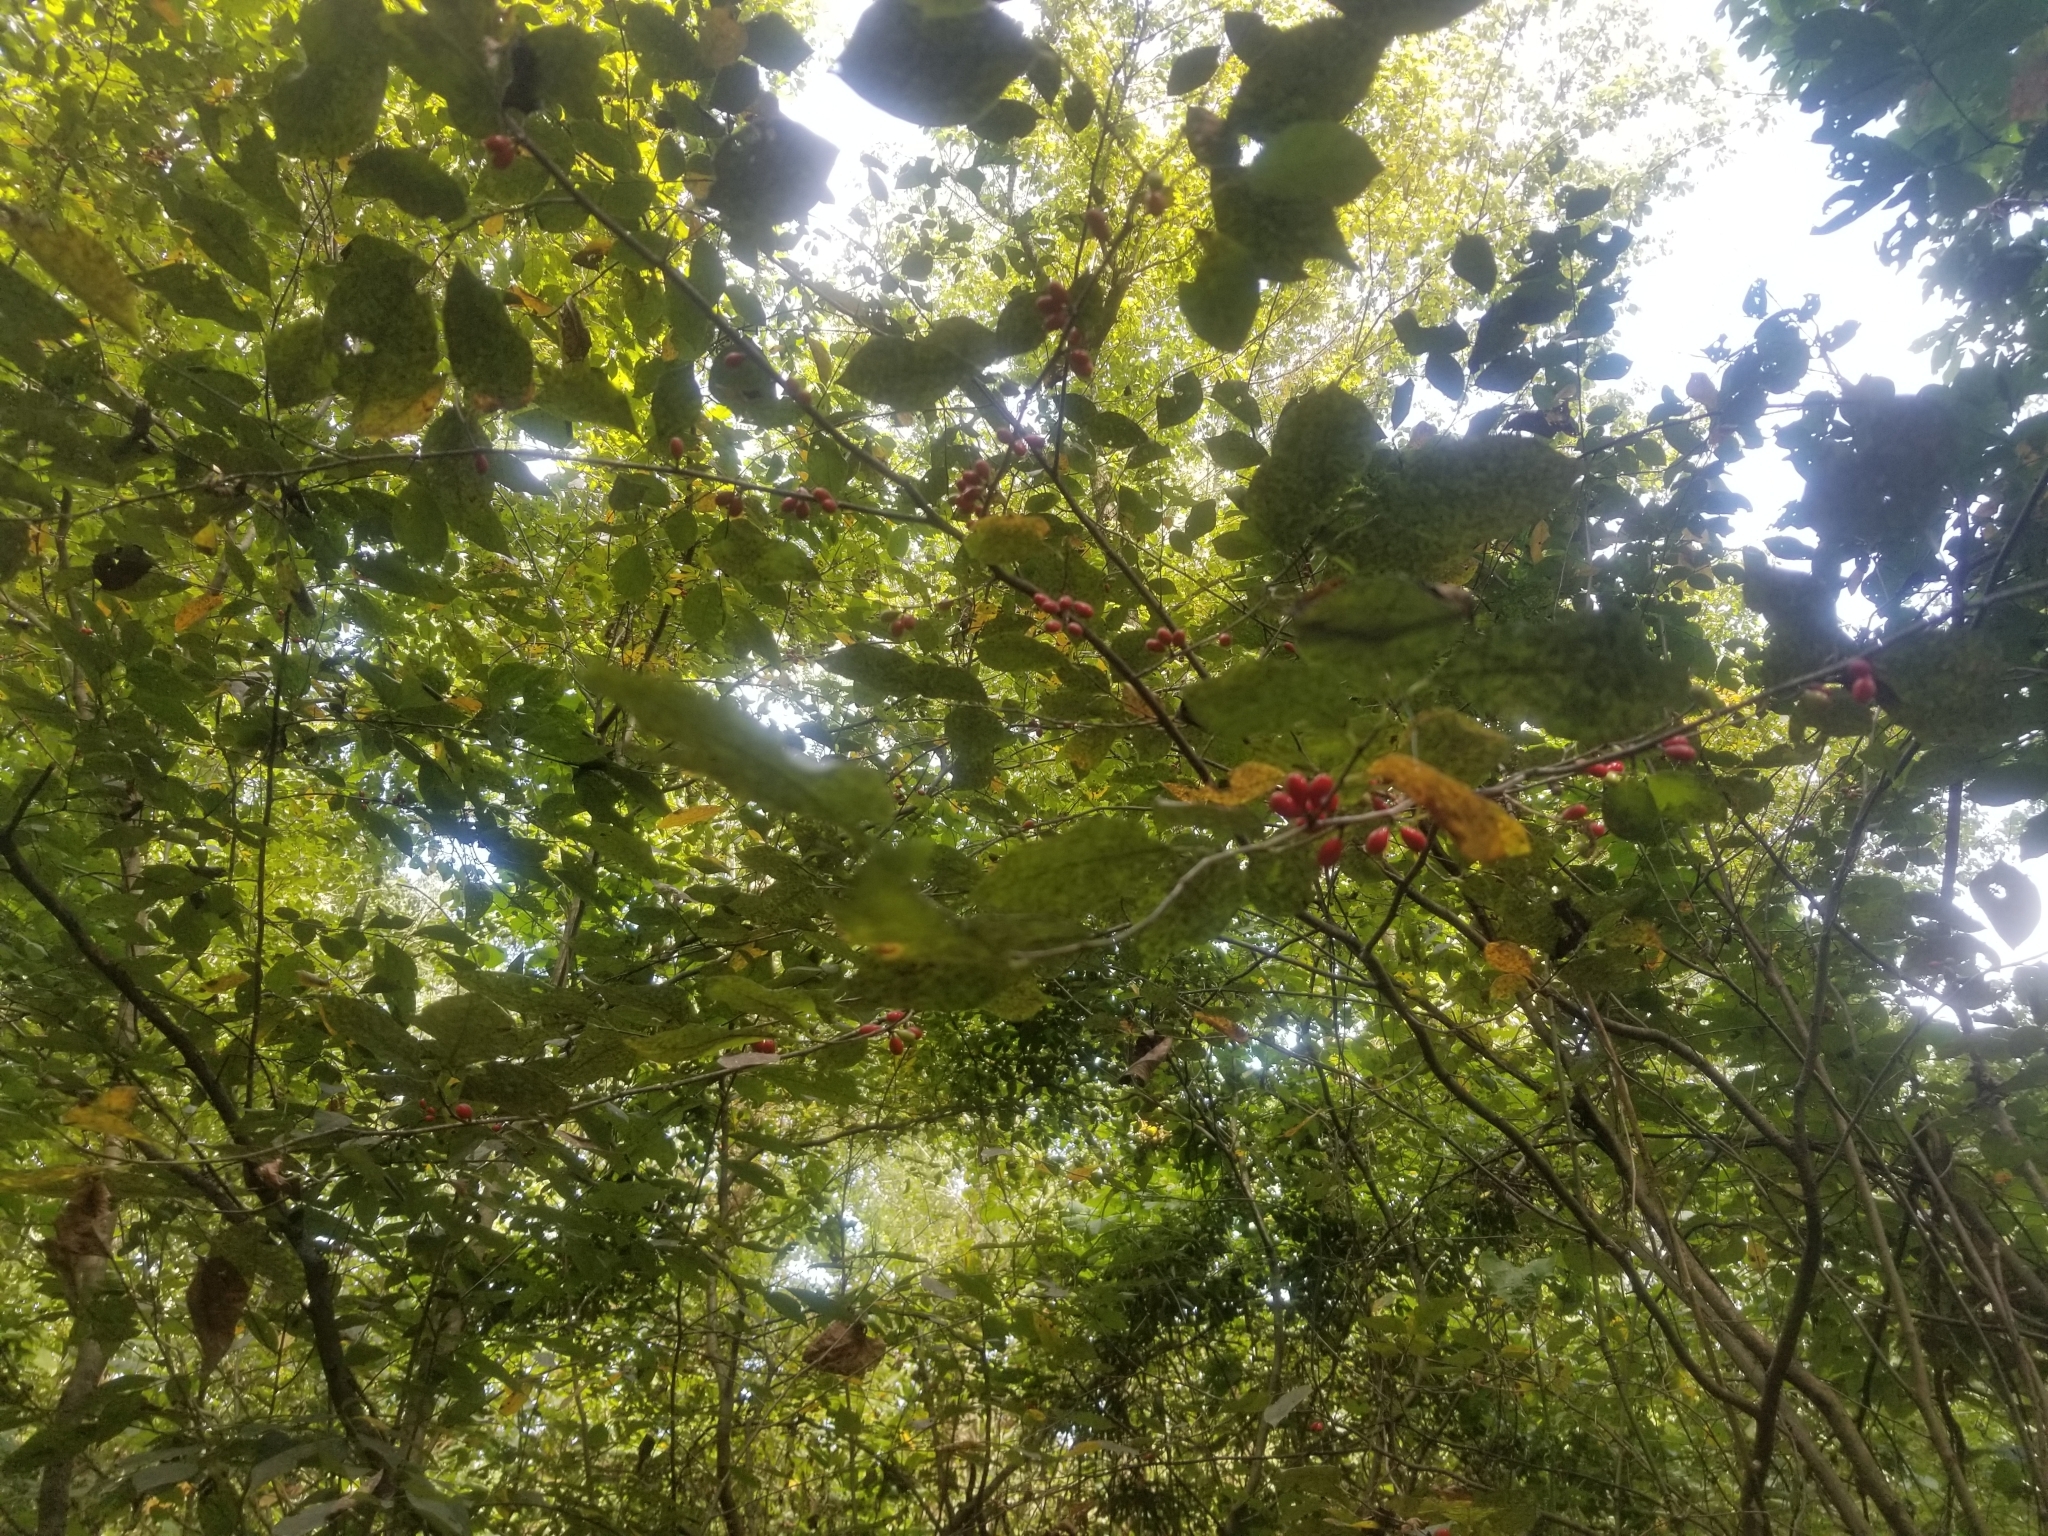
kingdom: Plantae
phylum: Tracheophyta
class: Magnoliopsida
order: Laurales
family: Lauraceae
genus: Lindera
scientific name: Lindera benzoin
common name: Spicebush
